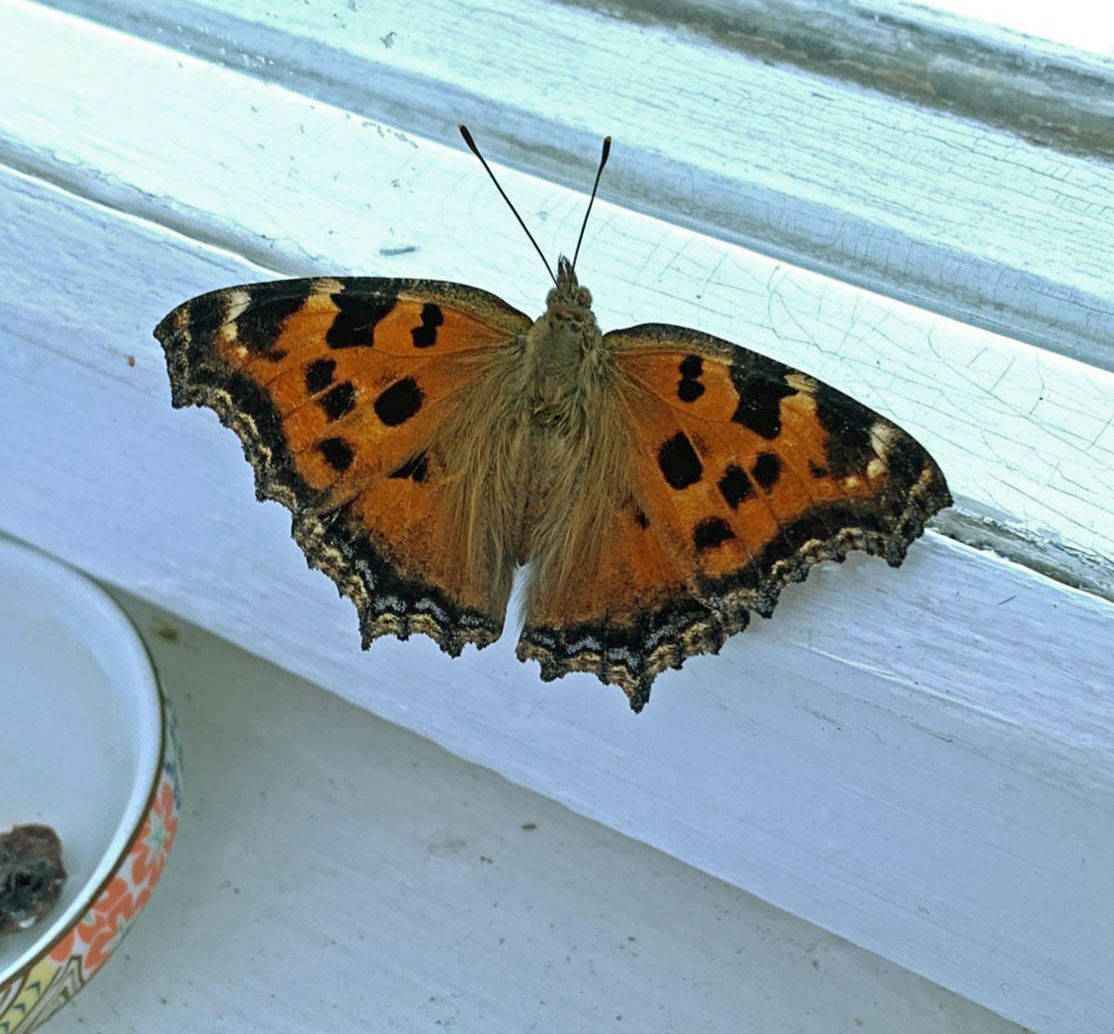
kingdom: Animalia
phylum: Arthropoda
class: Insecta
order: Lepidoptera
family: Nymphalidae
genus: Nymphalis
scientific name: Nymphalis xanthomelas
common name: Scarce tortoiseshell
